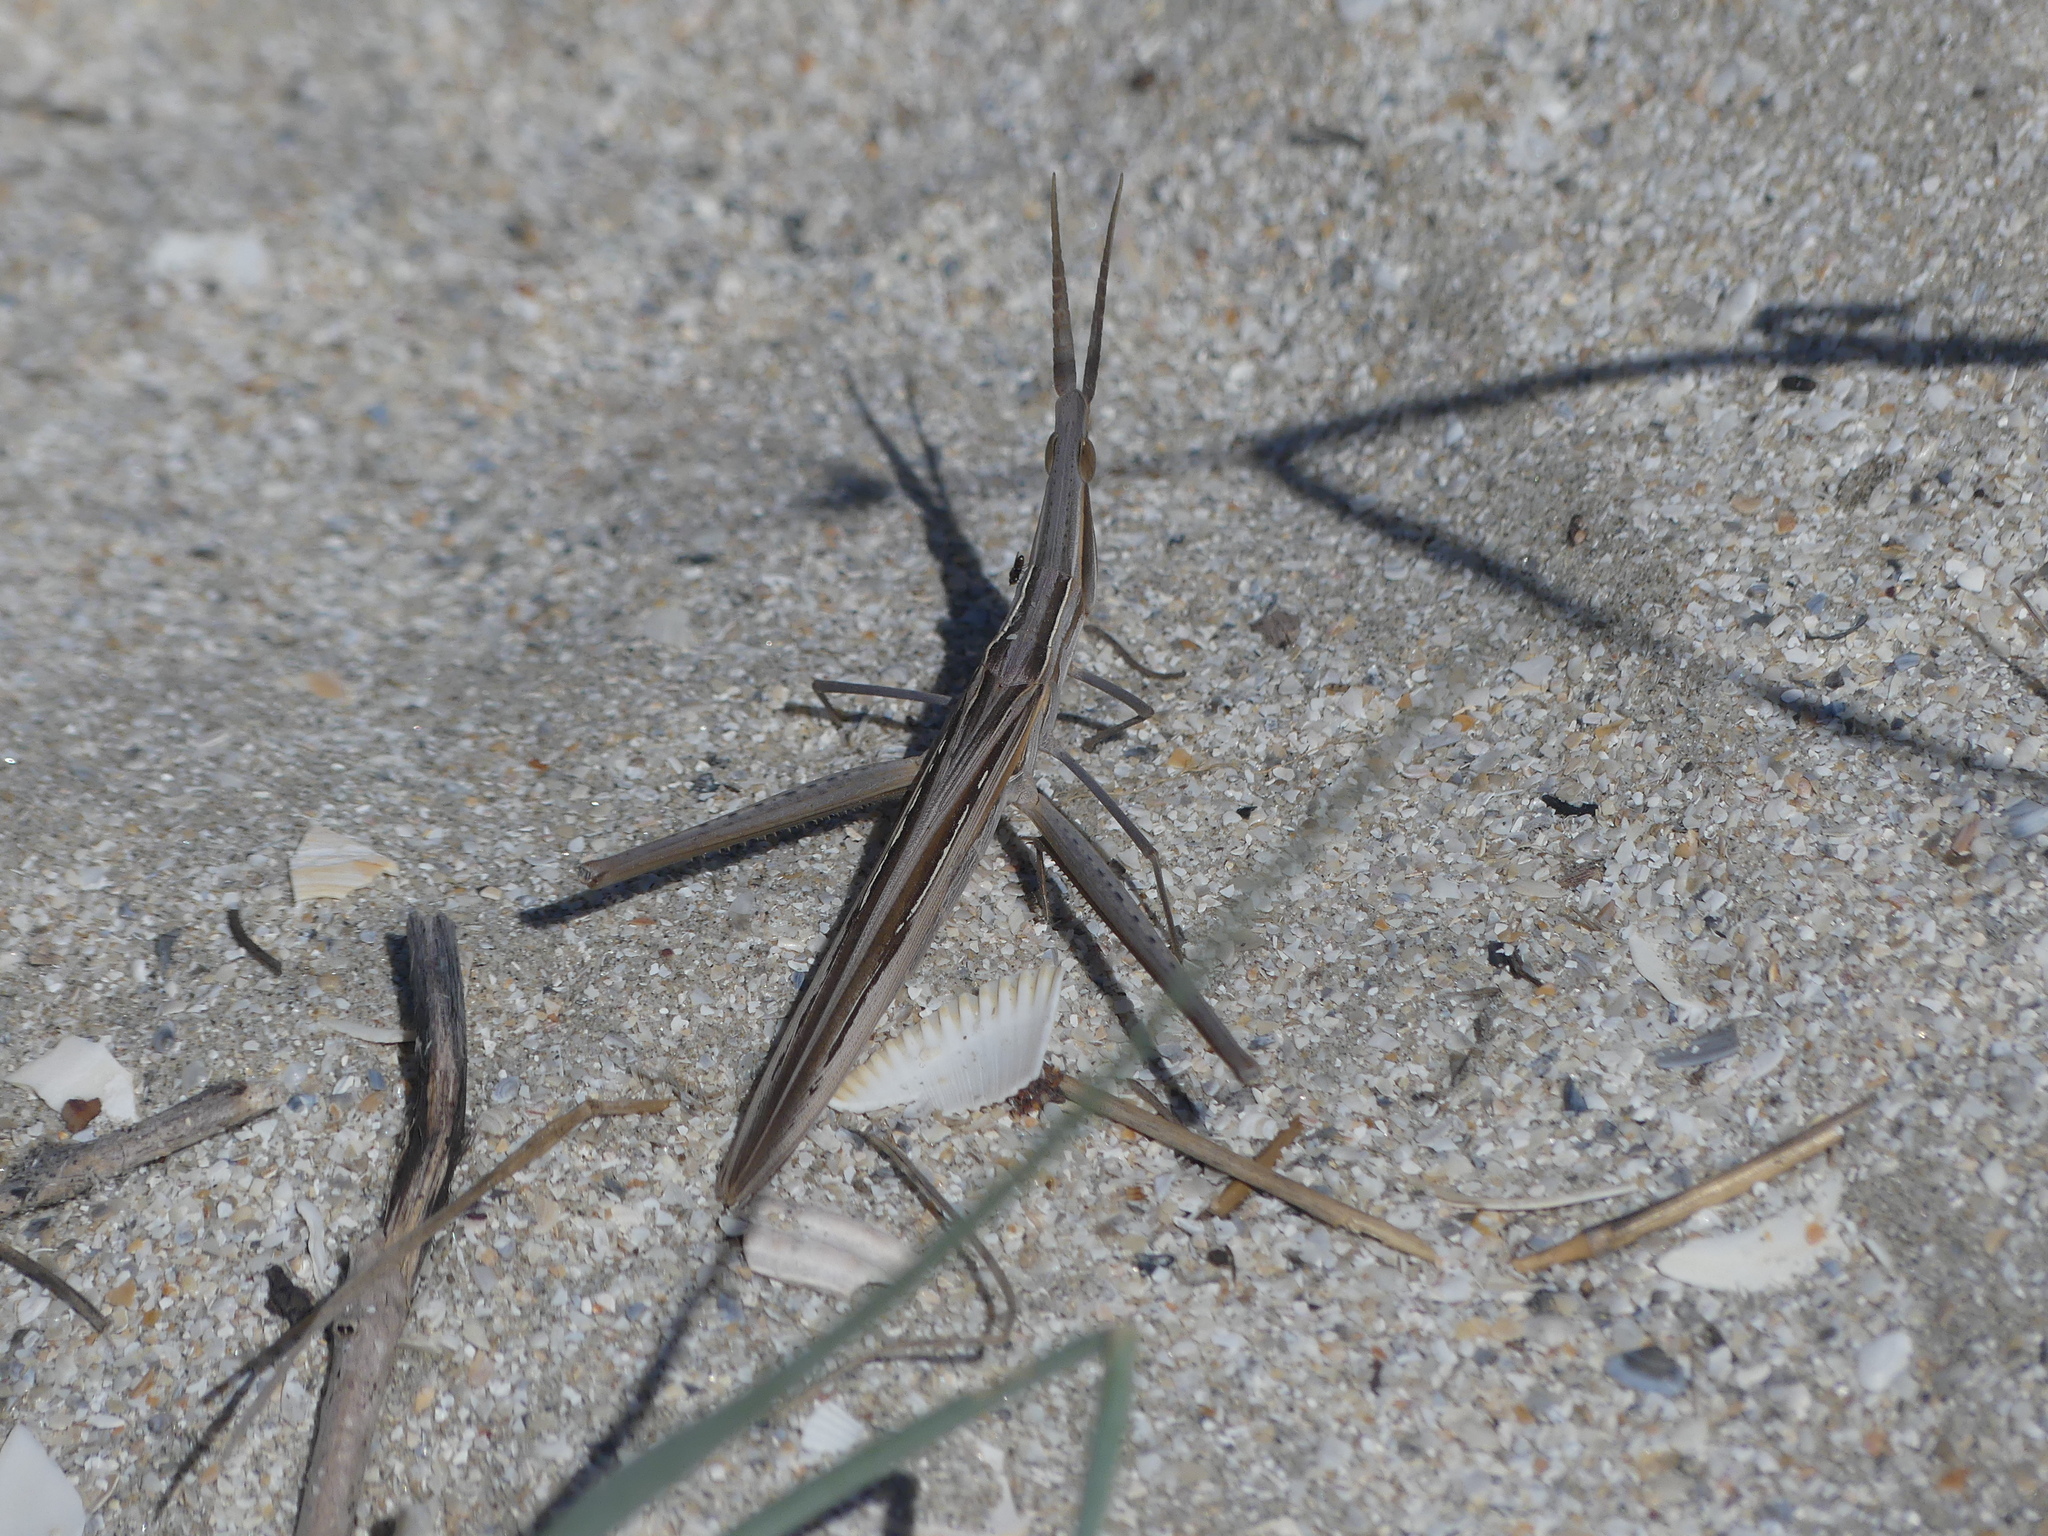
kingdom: Animalia
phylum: Arthropoda
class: Insecta
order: Orthoptera
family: Acrididae
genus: Acrida
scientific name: Acrida ungarica
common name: Common cone-headed grasshopper
